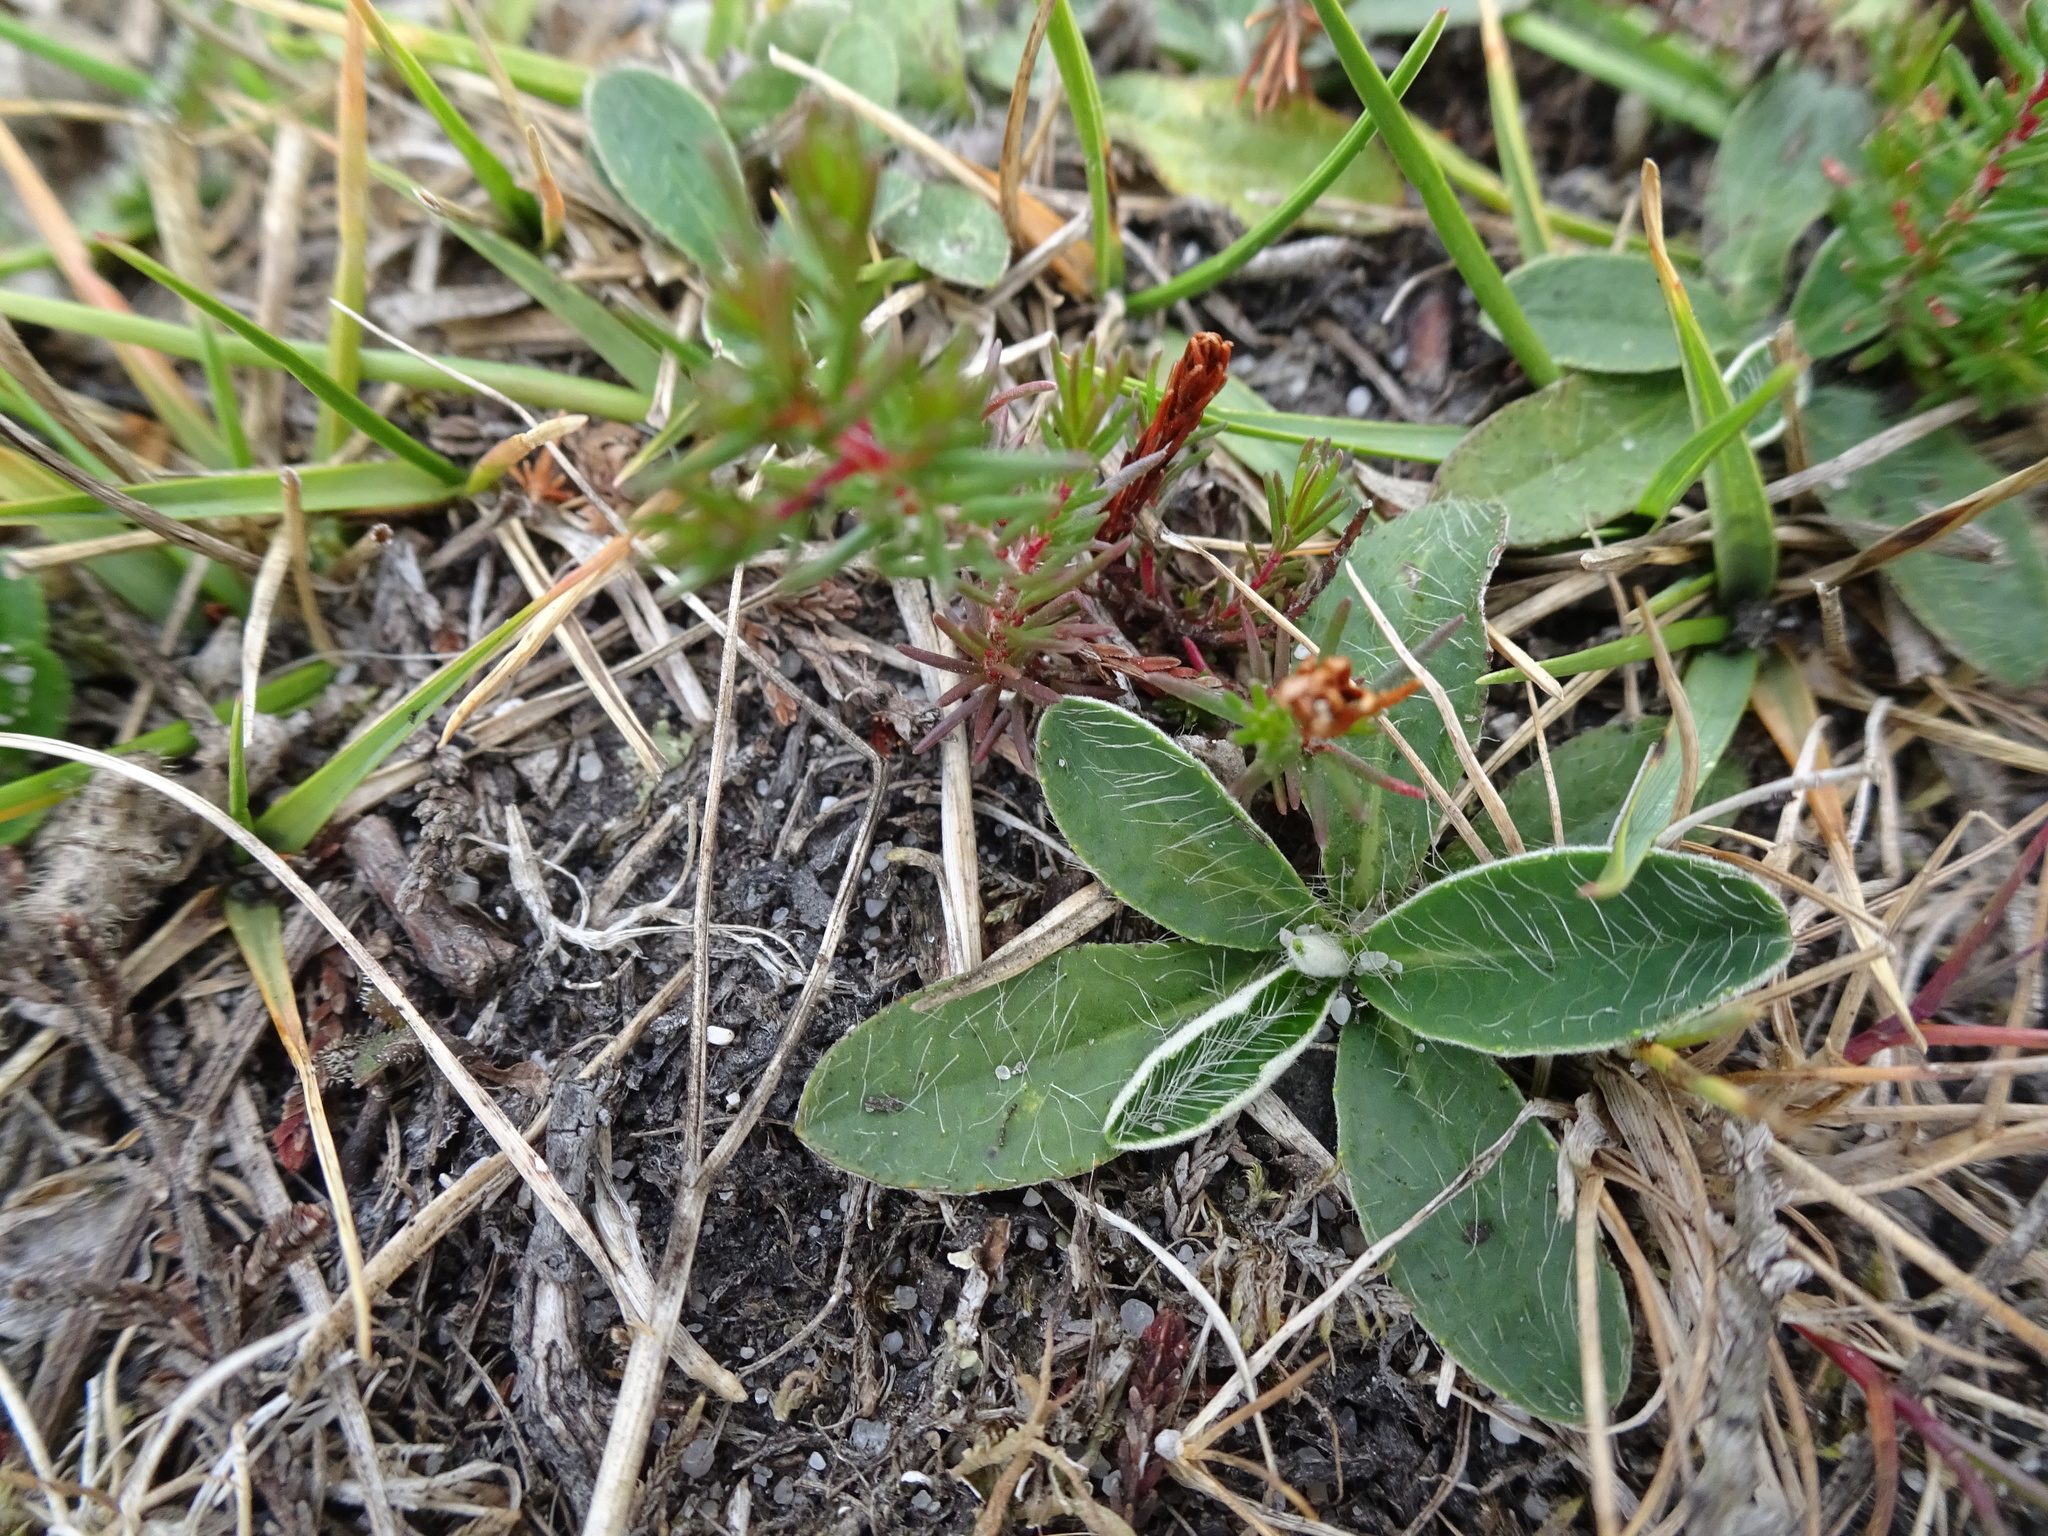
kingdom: Plantae
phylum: Tracheophyta
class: Magnoliopsida
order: Asterales
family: Asteraceae
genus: Pilosella
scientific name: Pilosella officinarum
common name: Mouse-ear hawkweed
